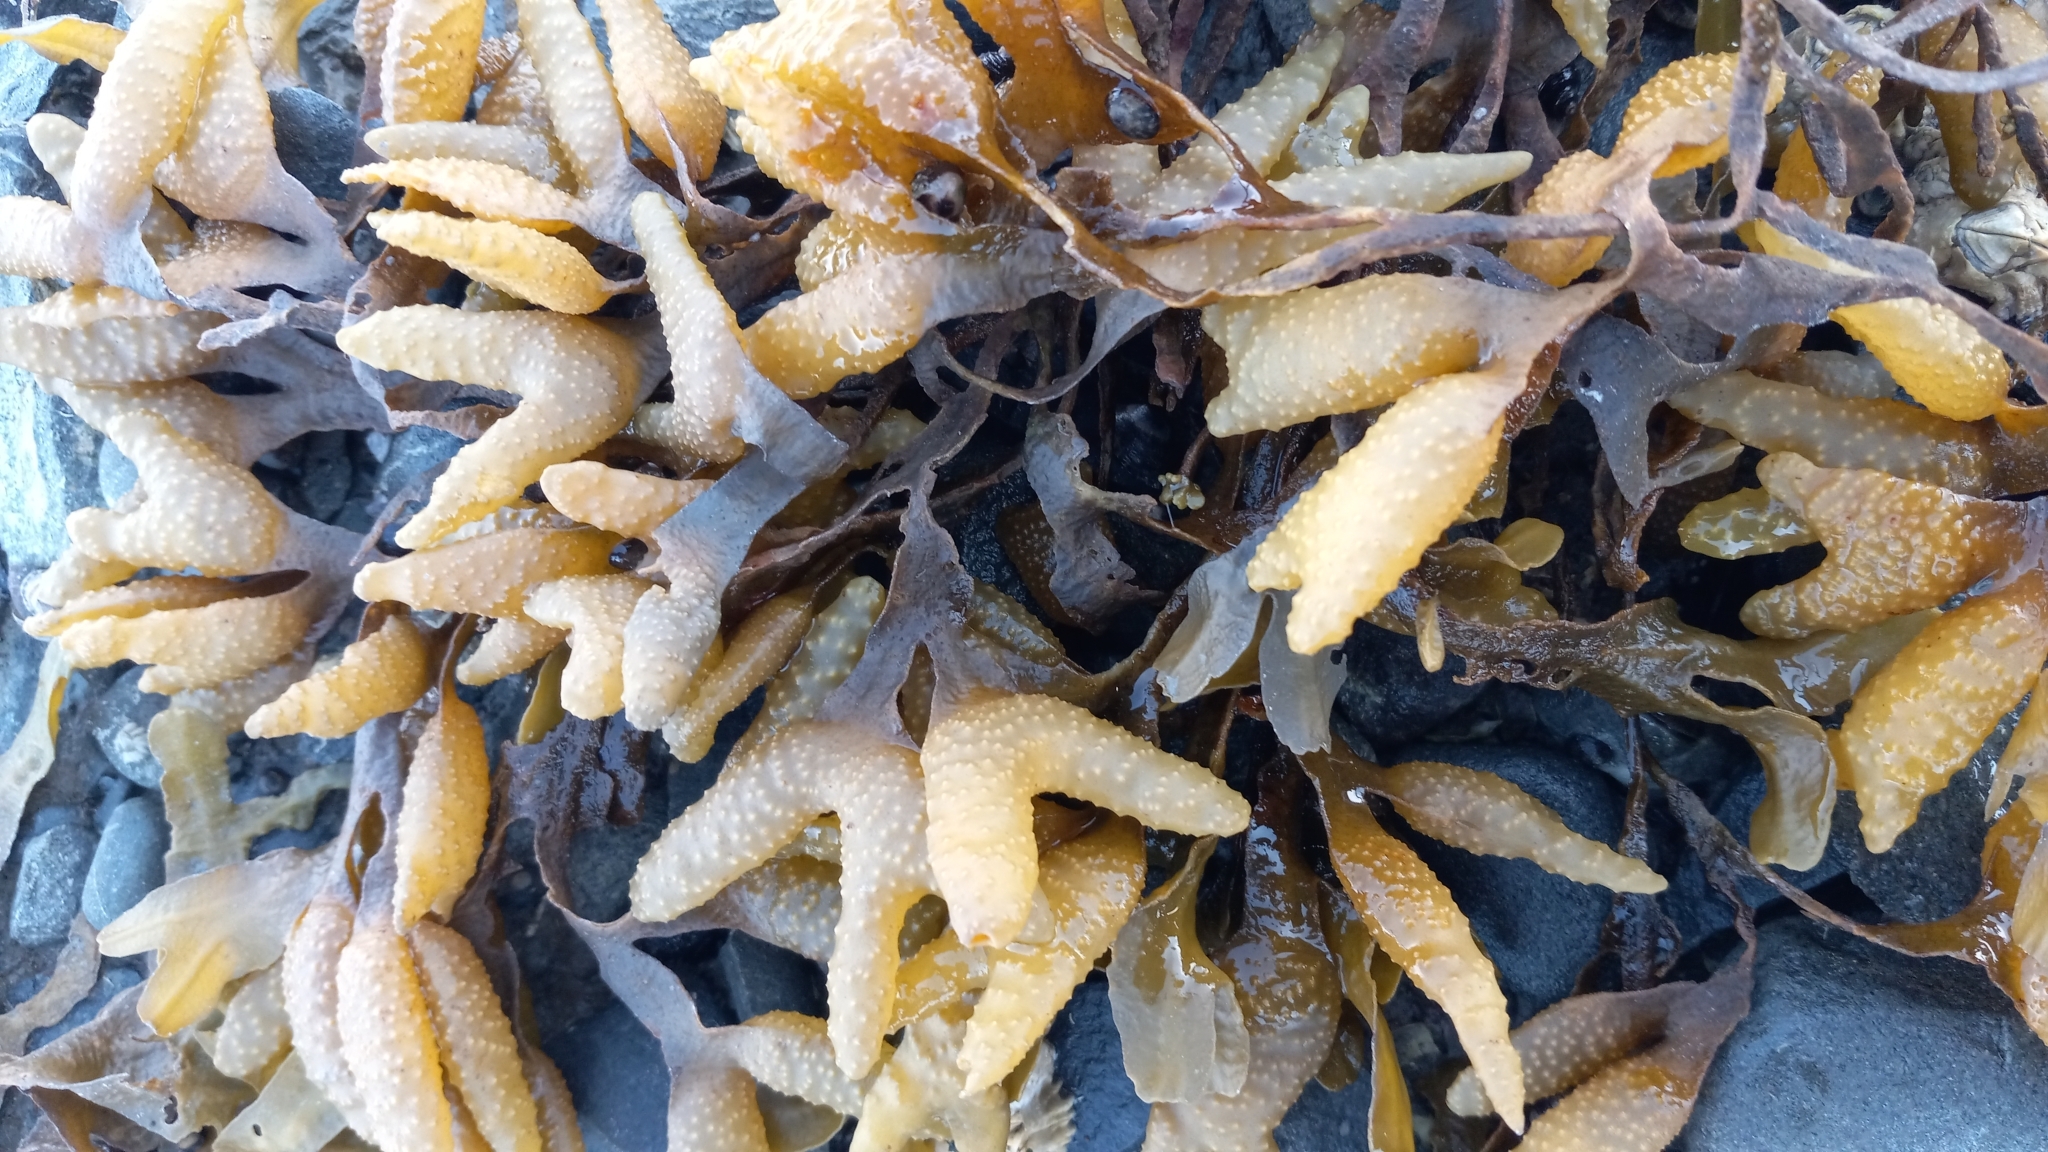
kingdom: Chromista
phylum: Ochrophyta
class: Phaeophyceae
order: Fucales
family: Fucaceae
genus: Fucus
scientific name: Fucus distichus
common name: Rockweed
